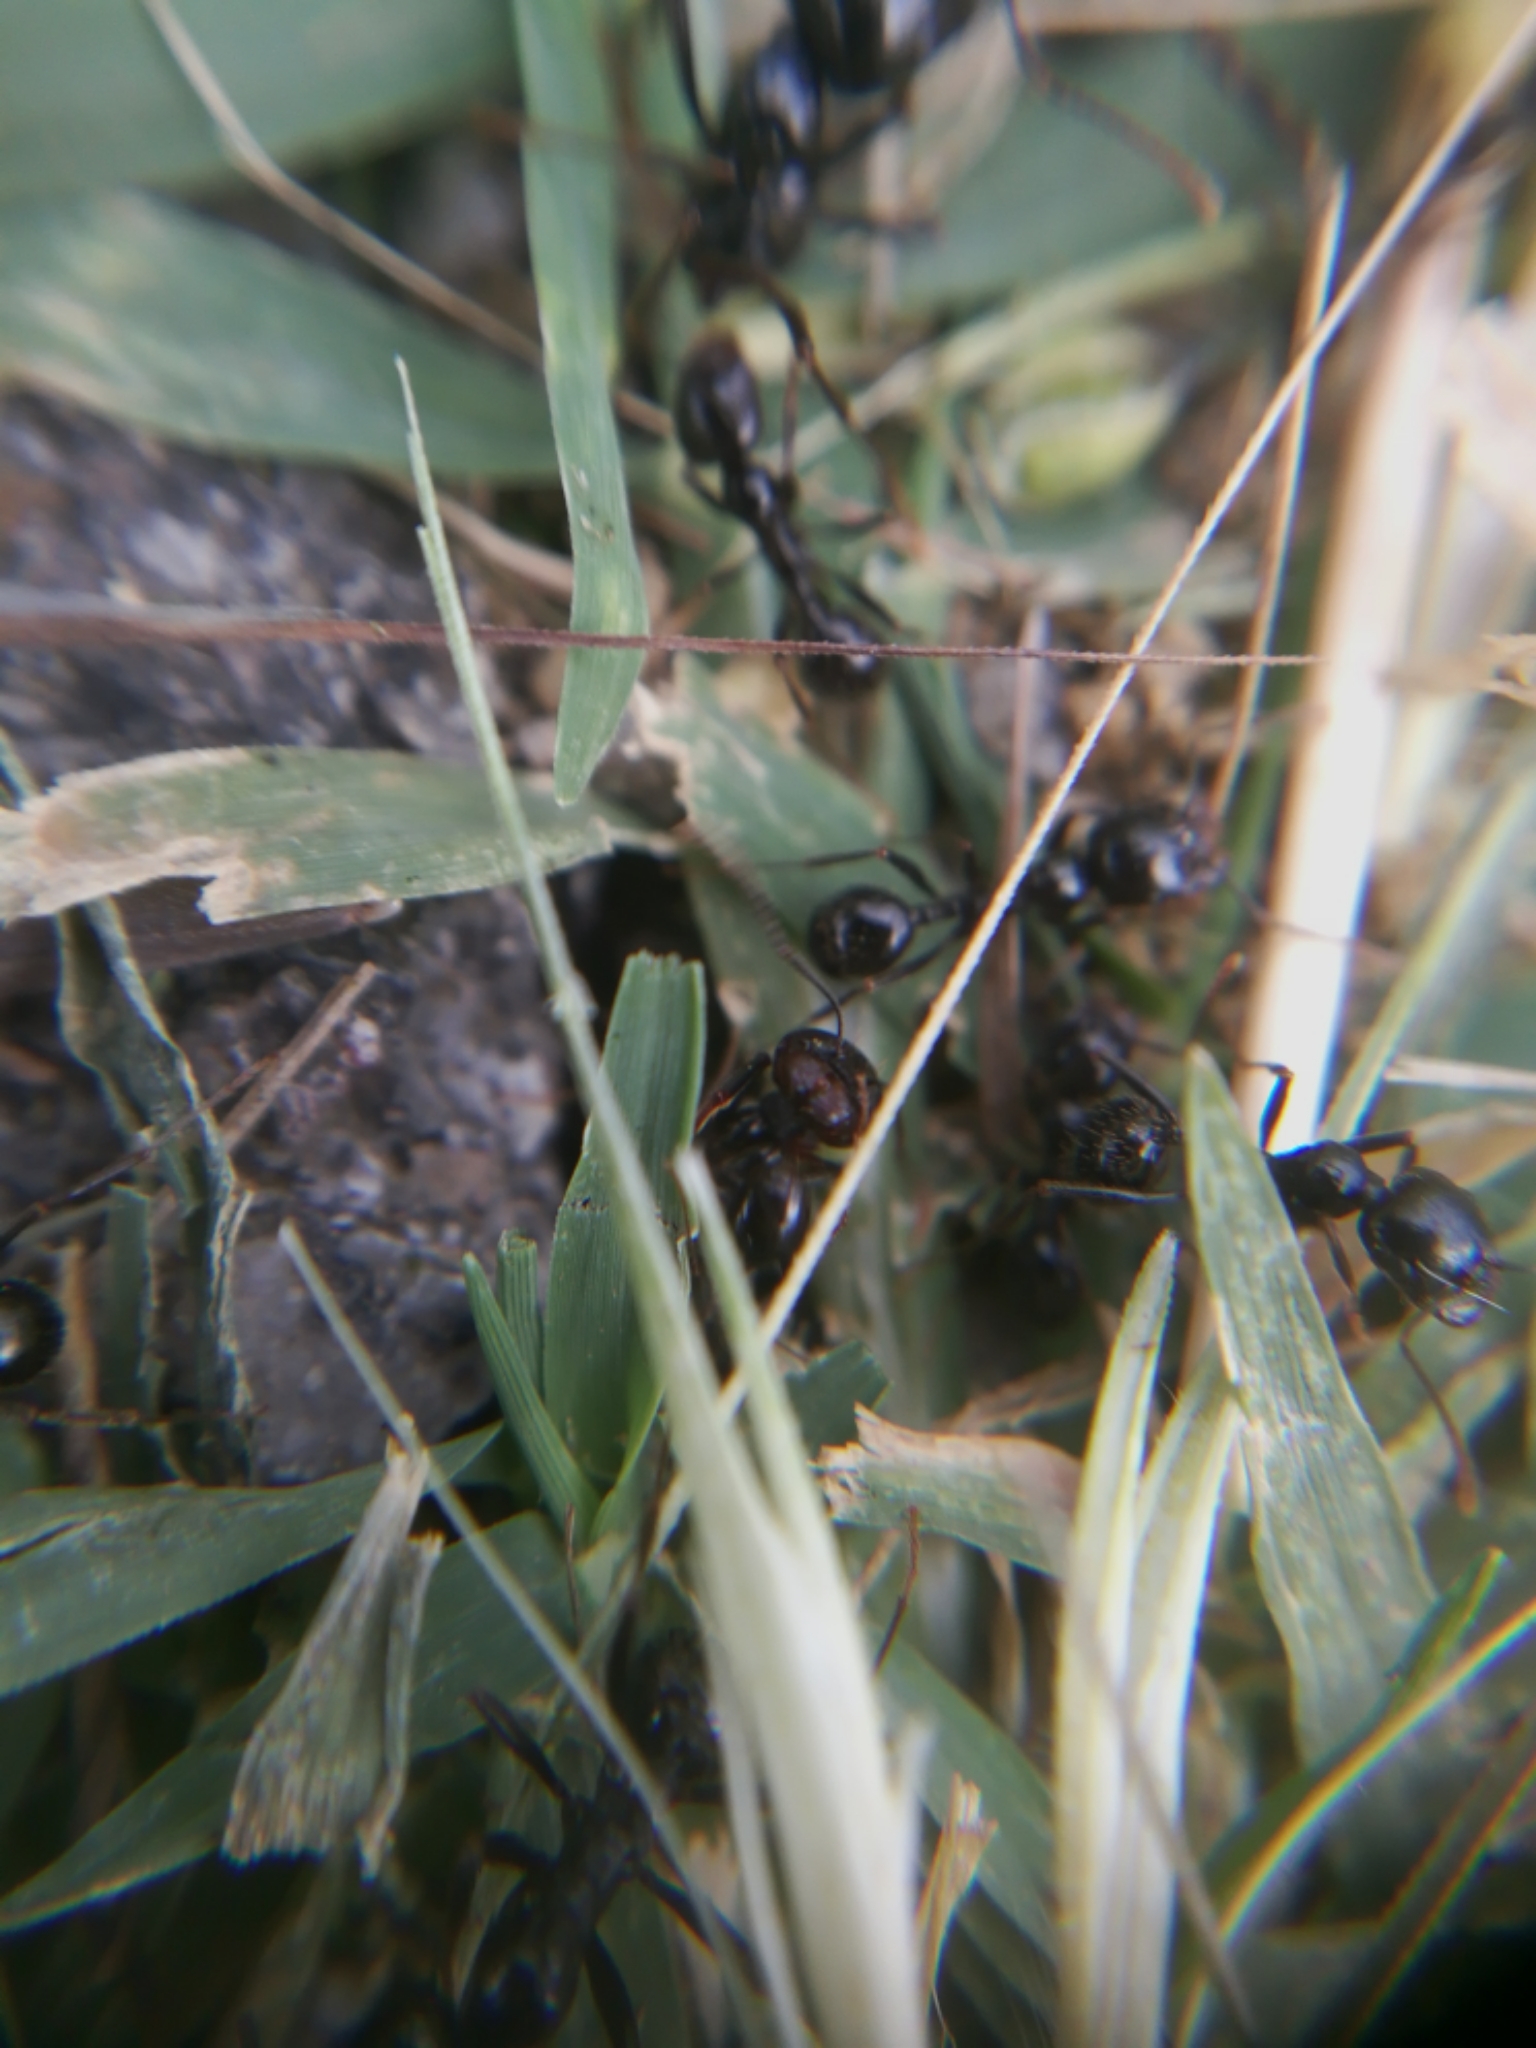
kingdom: Animalia
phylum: Arthropoda
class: Insecta
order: Hymenoptera
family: Formicidae
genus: Messor
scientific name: Messor capitatus
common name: European seed harvesting ant
